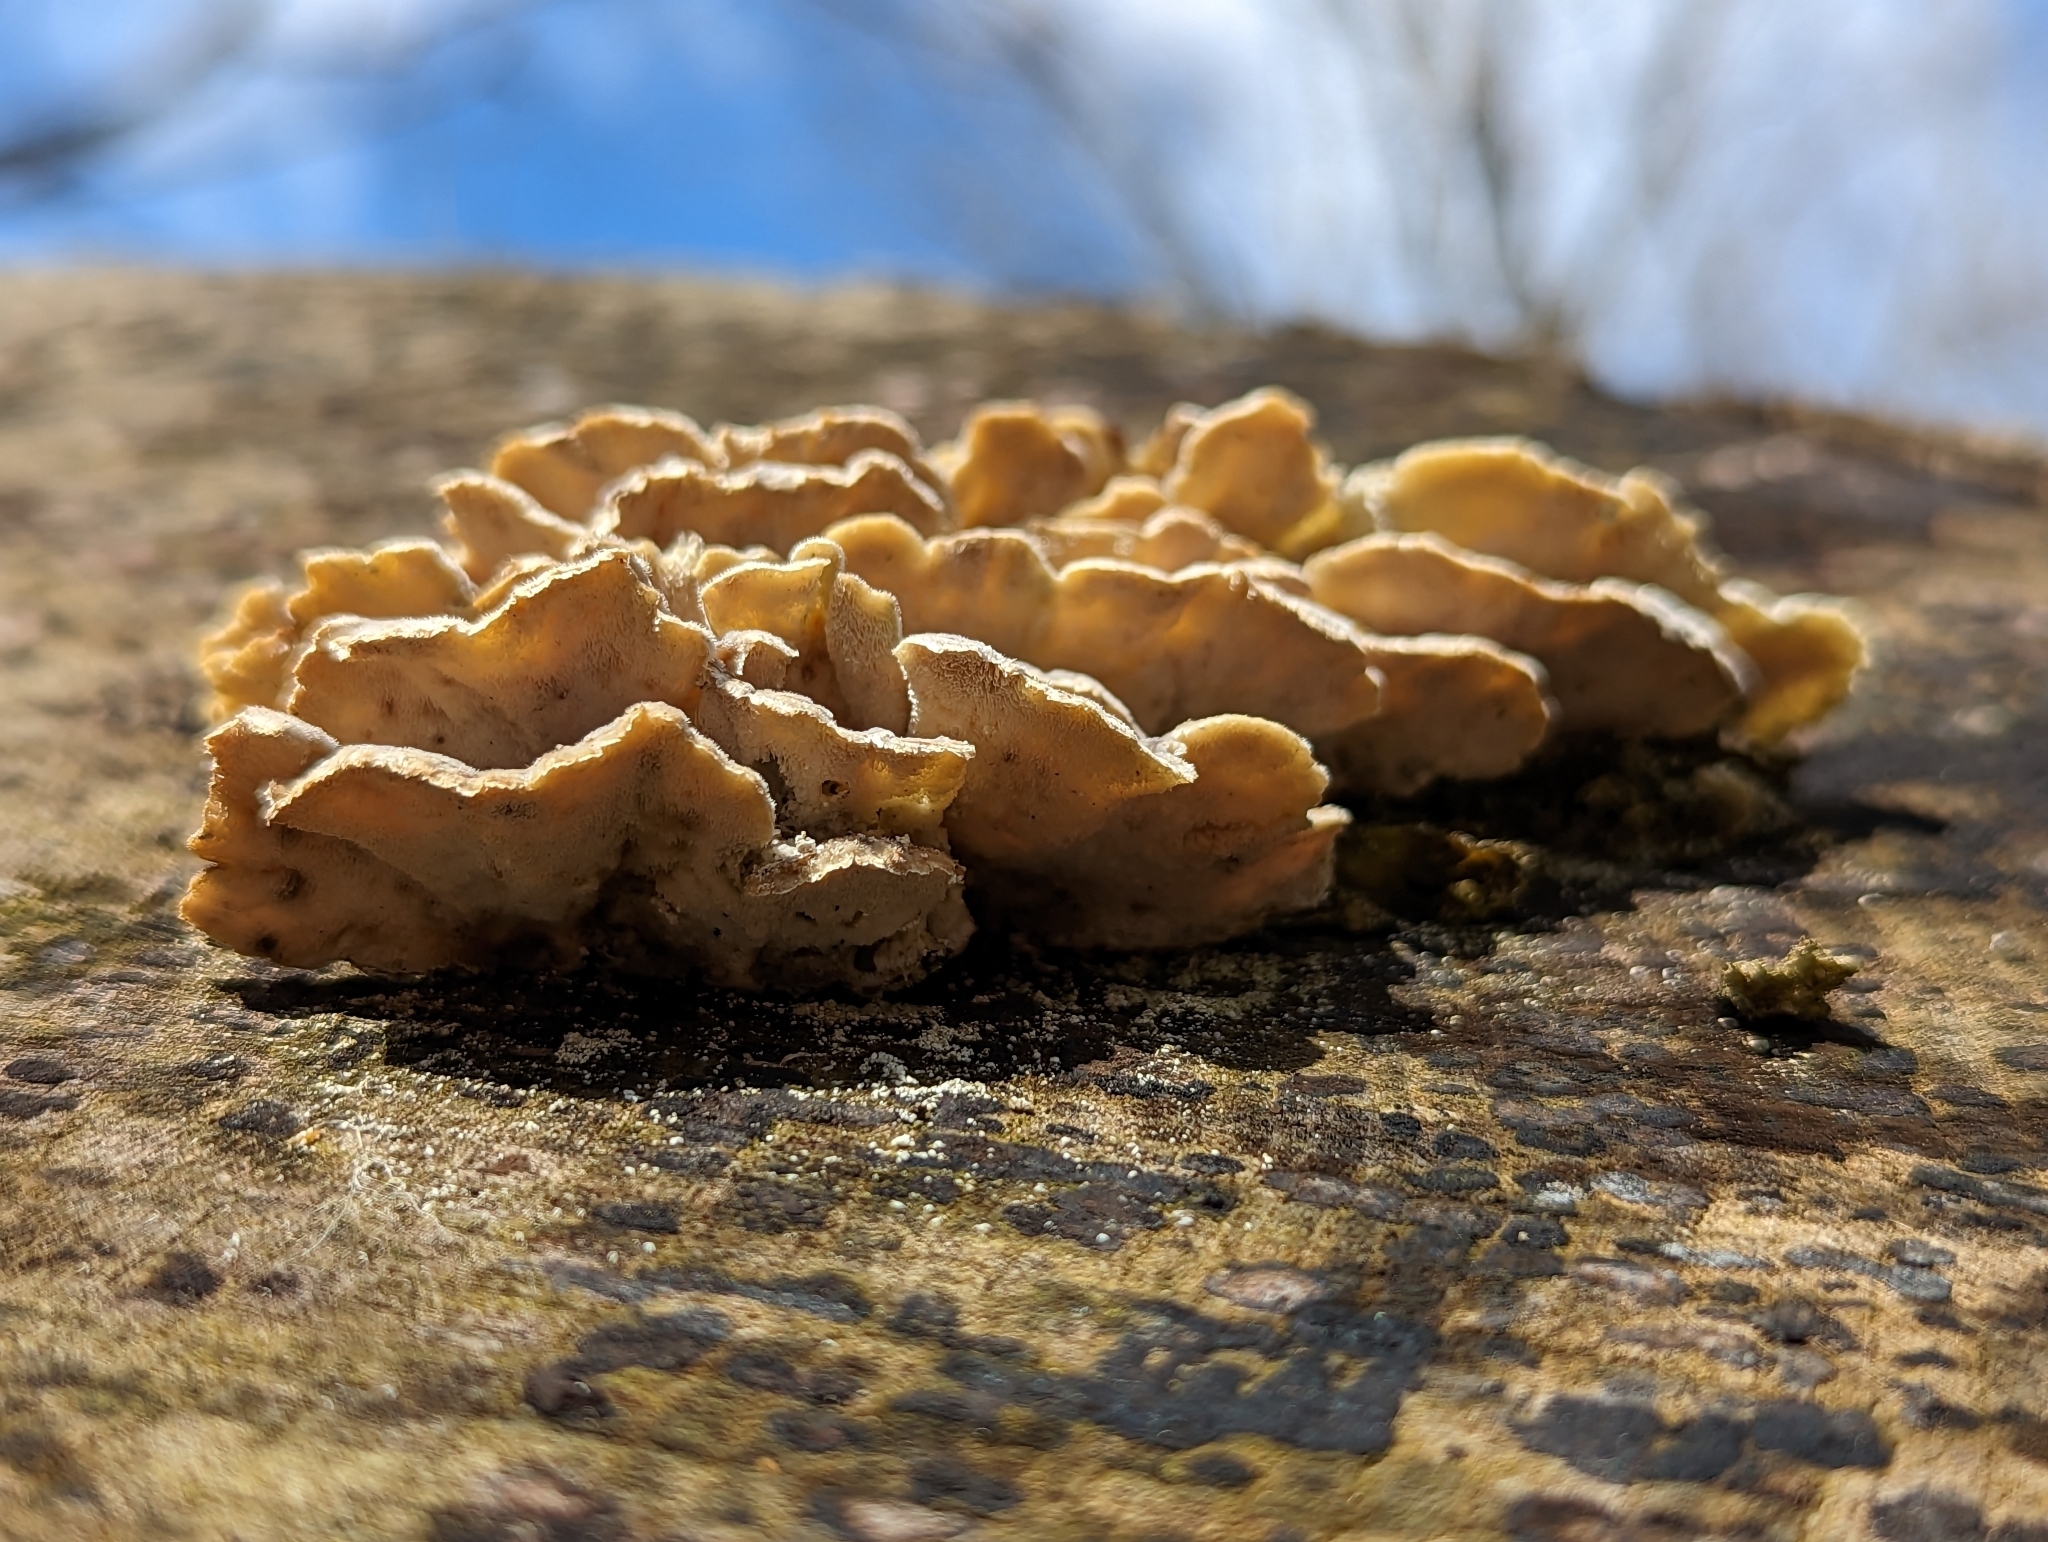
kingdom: Fungi
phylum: Basidiomycota
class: Agaricomycetes
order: Polyporales
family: Polyporaceae
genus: Trametes
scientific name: Trametes versicolor
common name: Turkeytail
